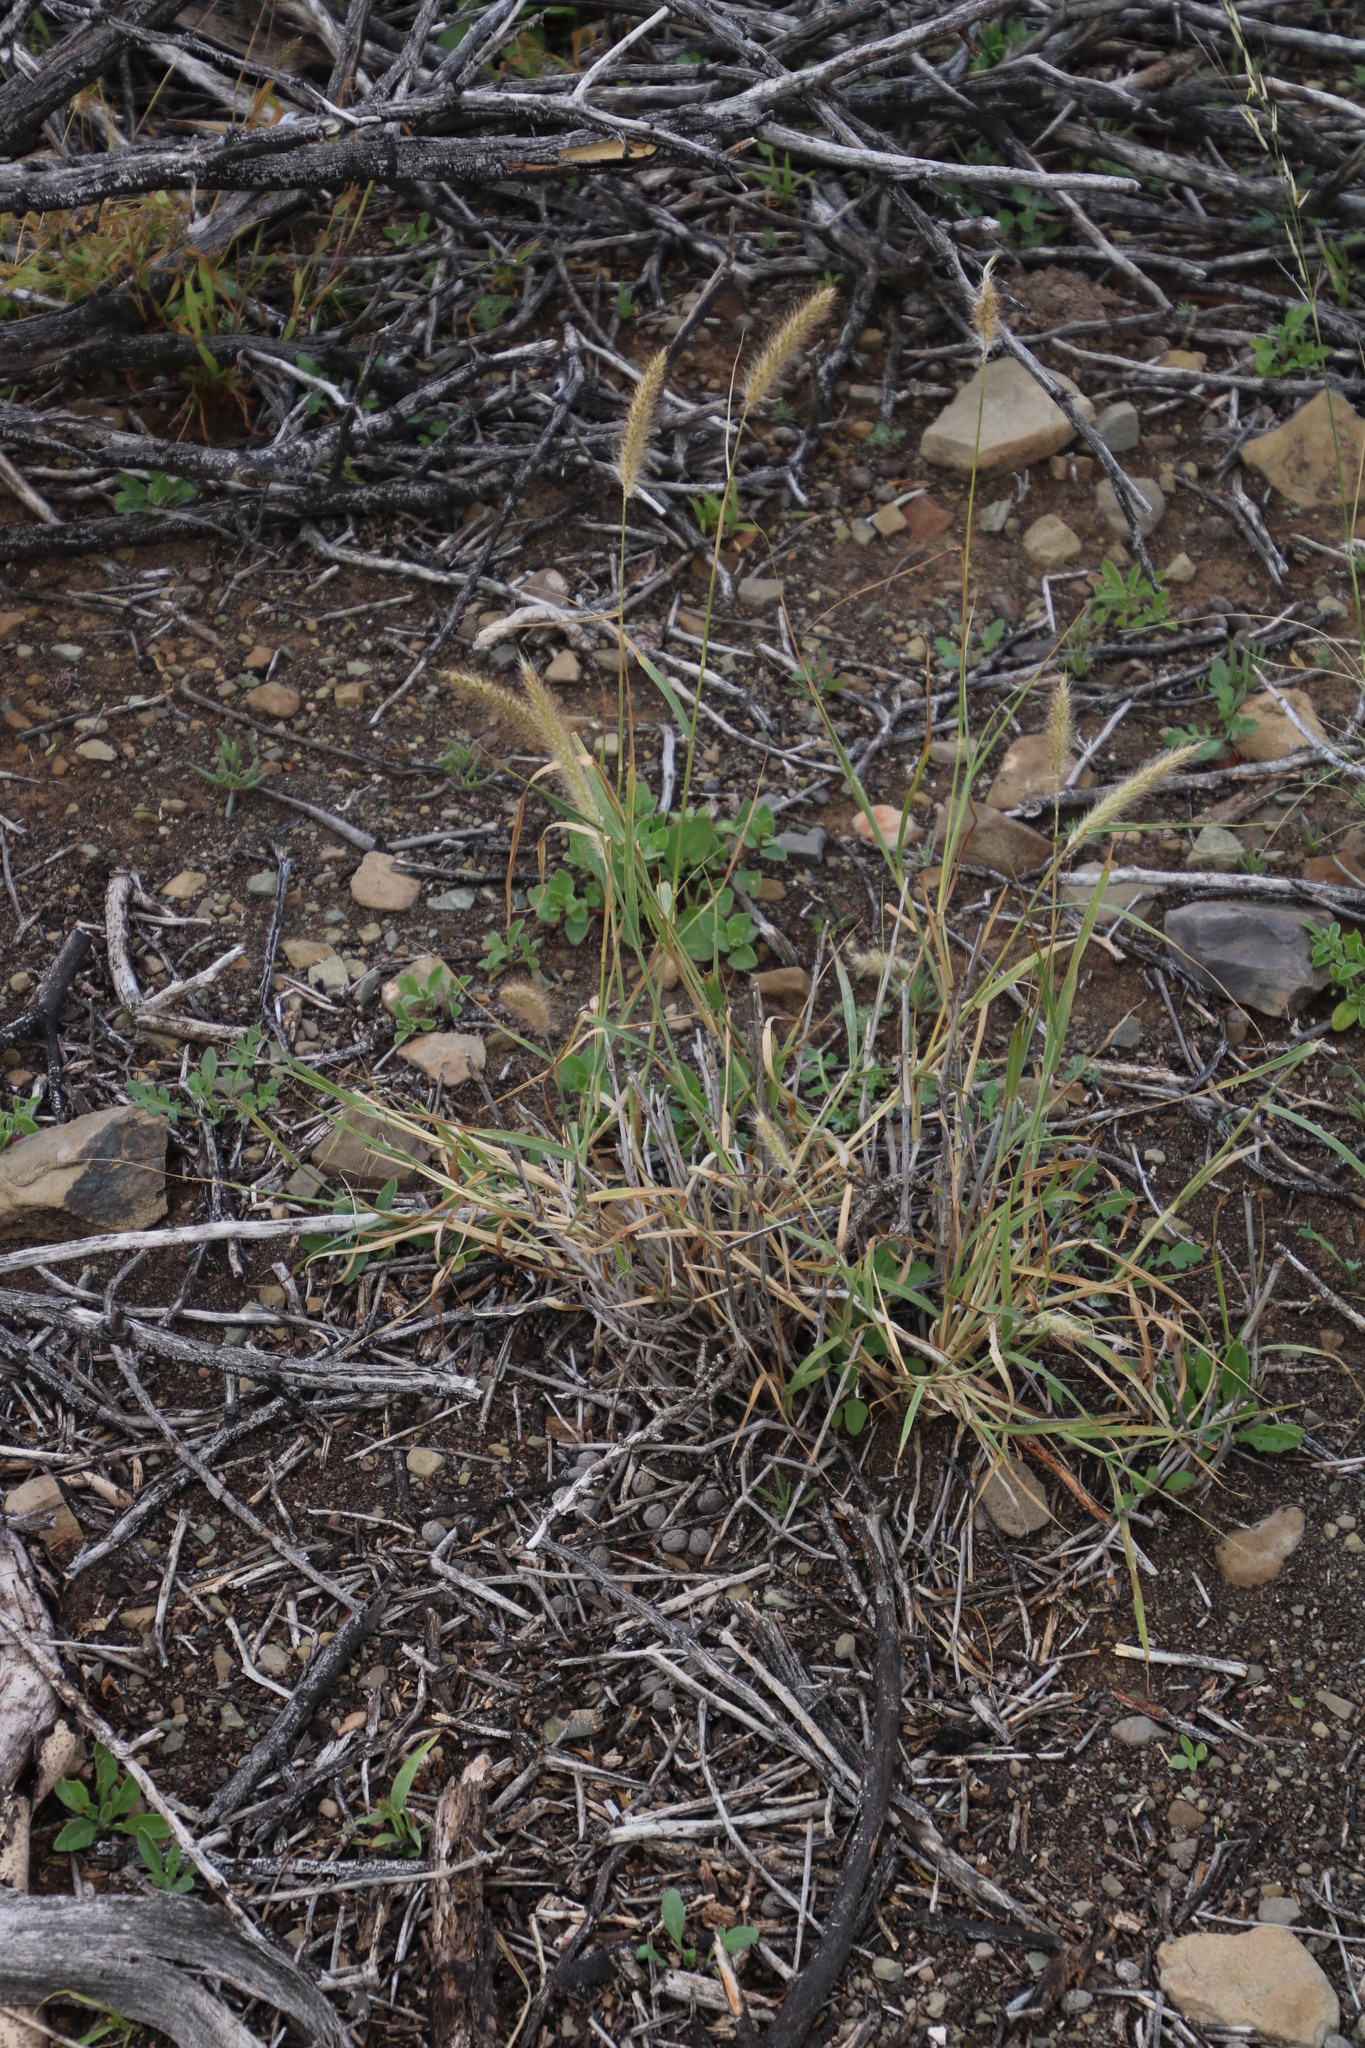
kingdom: Plantae
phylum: Tracheophyta
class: Liliopsida
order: Poales
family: Poaceae
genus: Cenchrus
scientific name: Cenchrus ciliaris
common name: Buffelgrass
